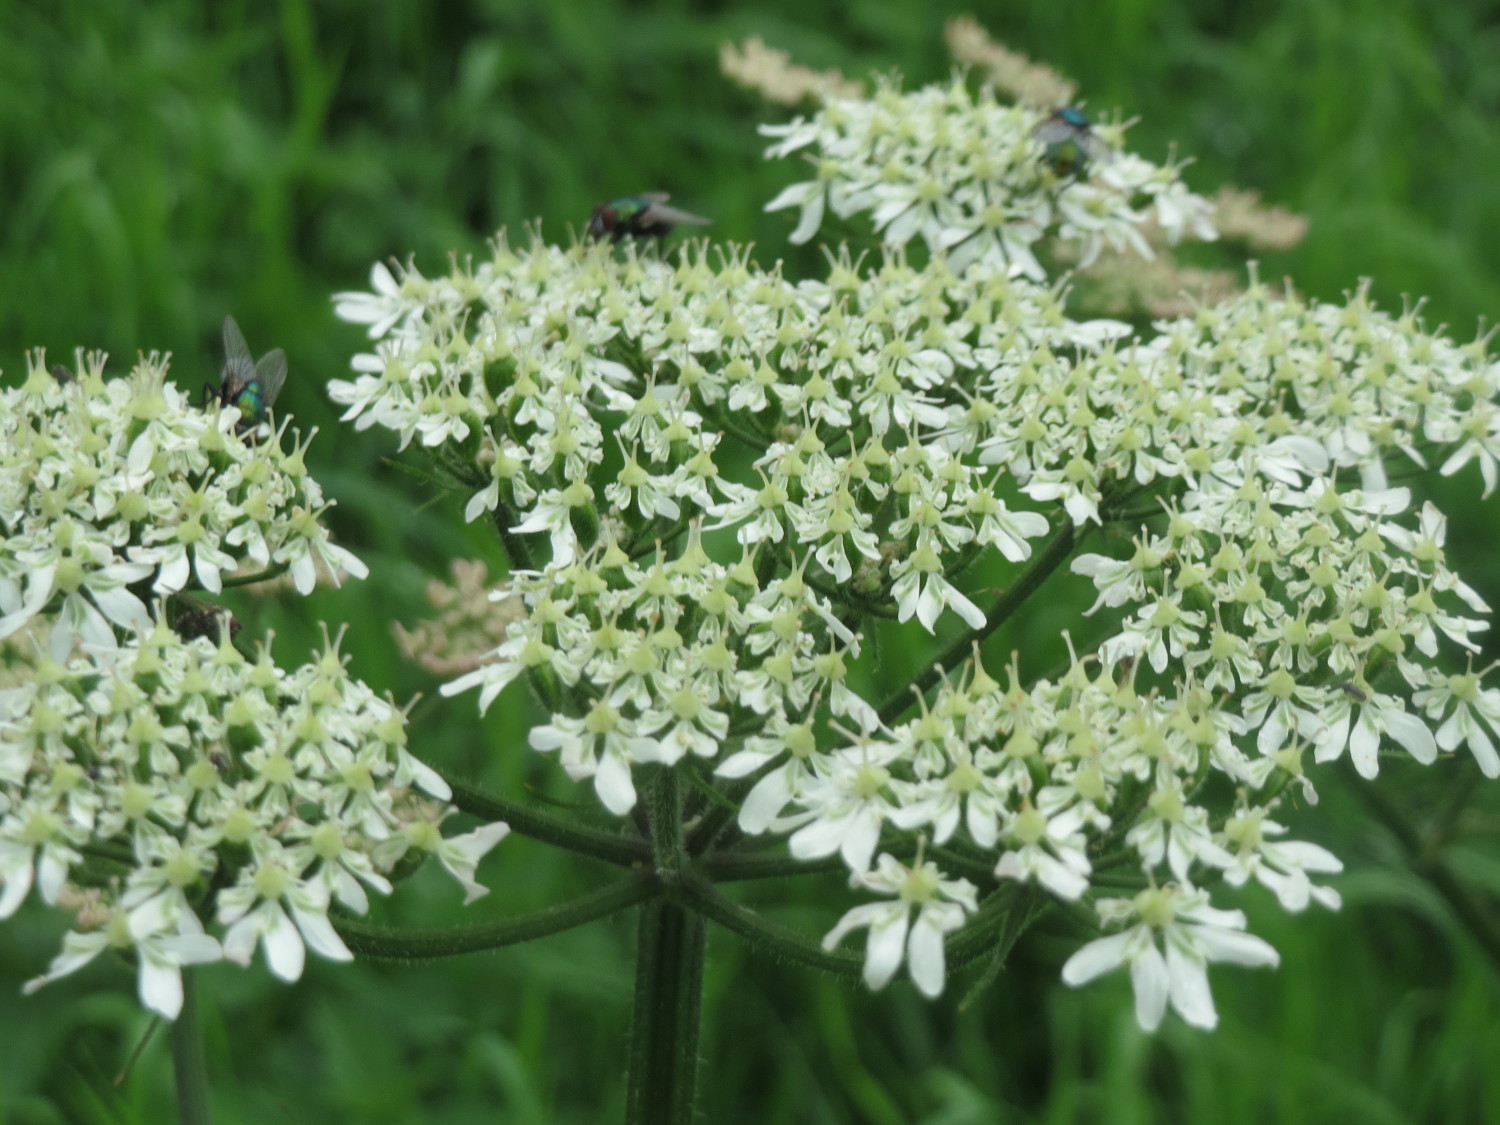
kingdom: Plantae
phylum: Tracheophyta
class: Magnoliopsida
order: Apiales
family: Apiaceae
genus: Heracleum
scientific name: Heracleum sphondylium
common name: Hogweed
